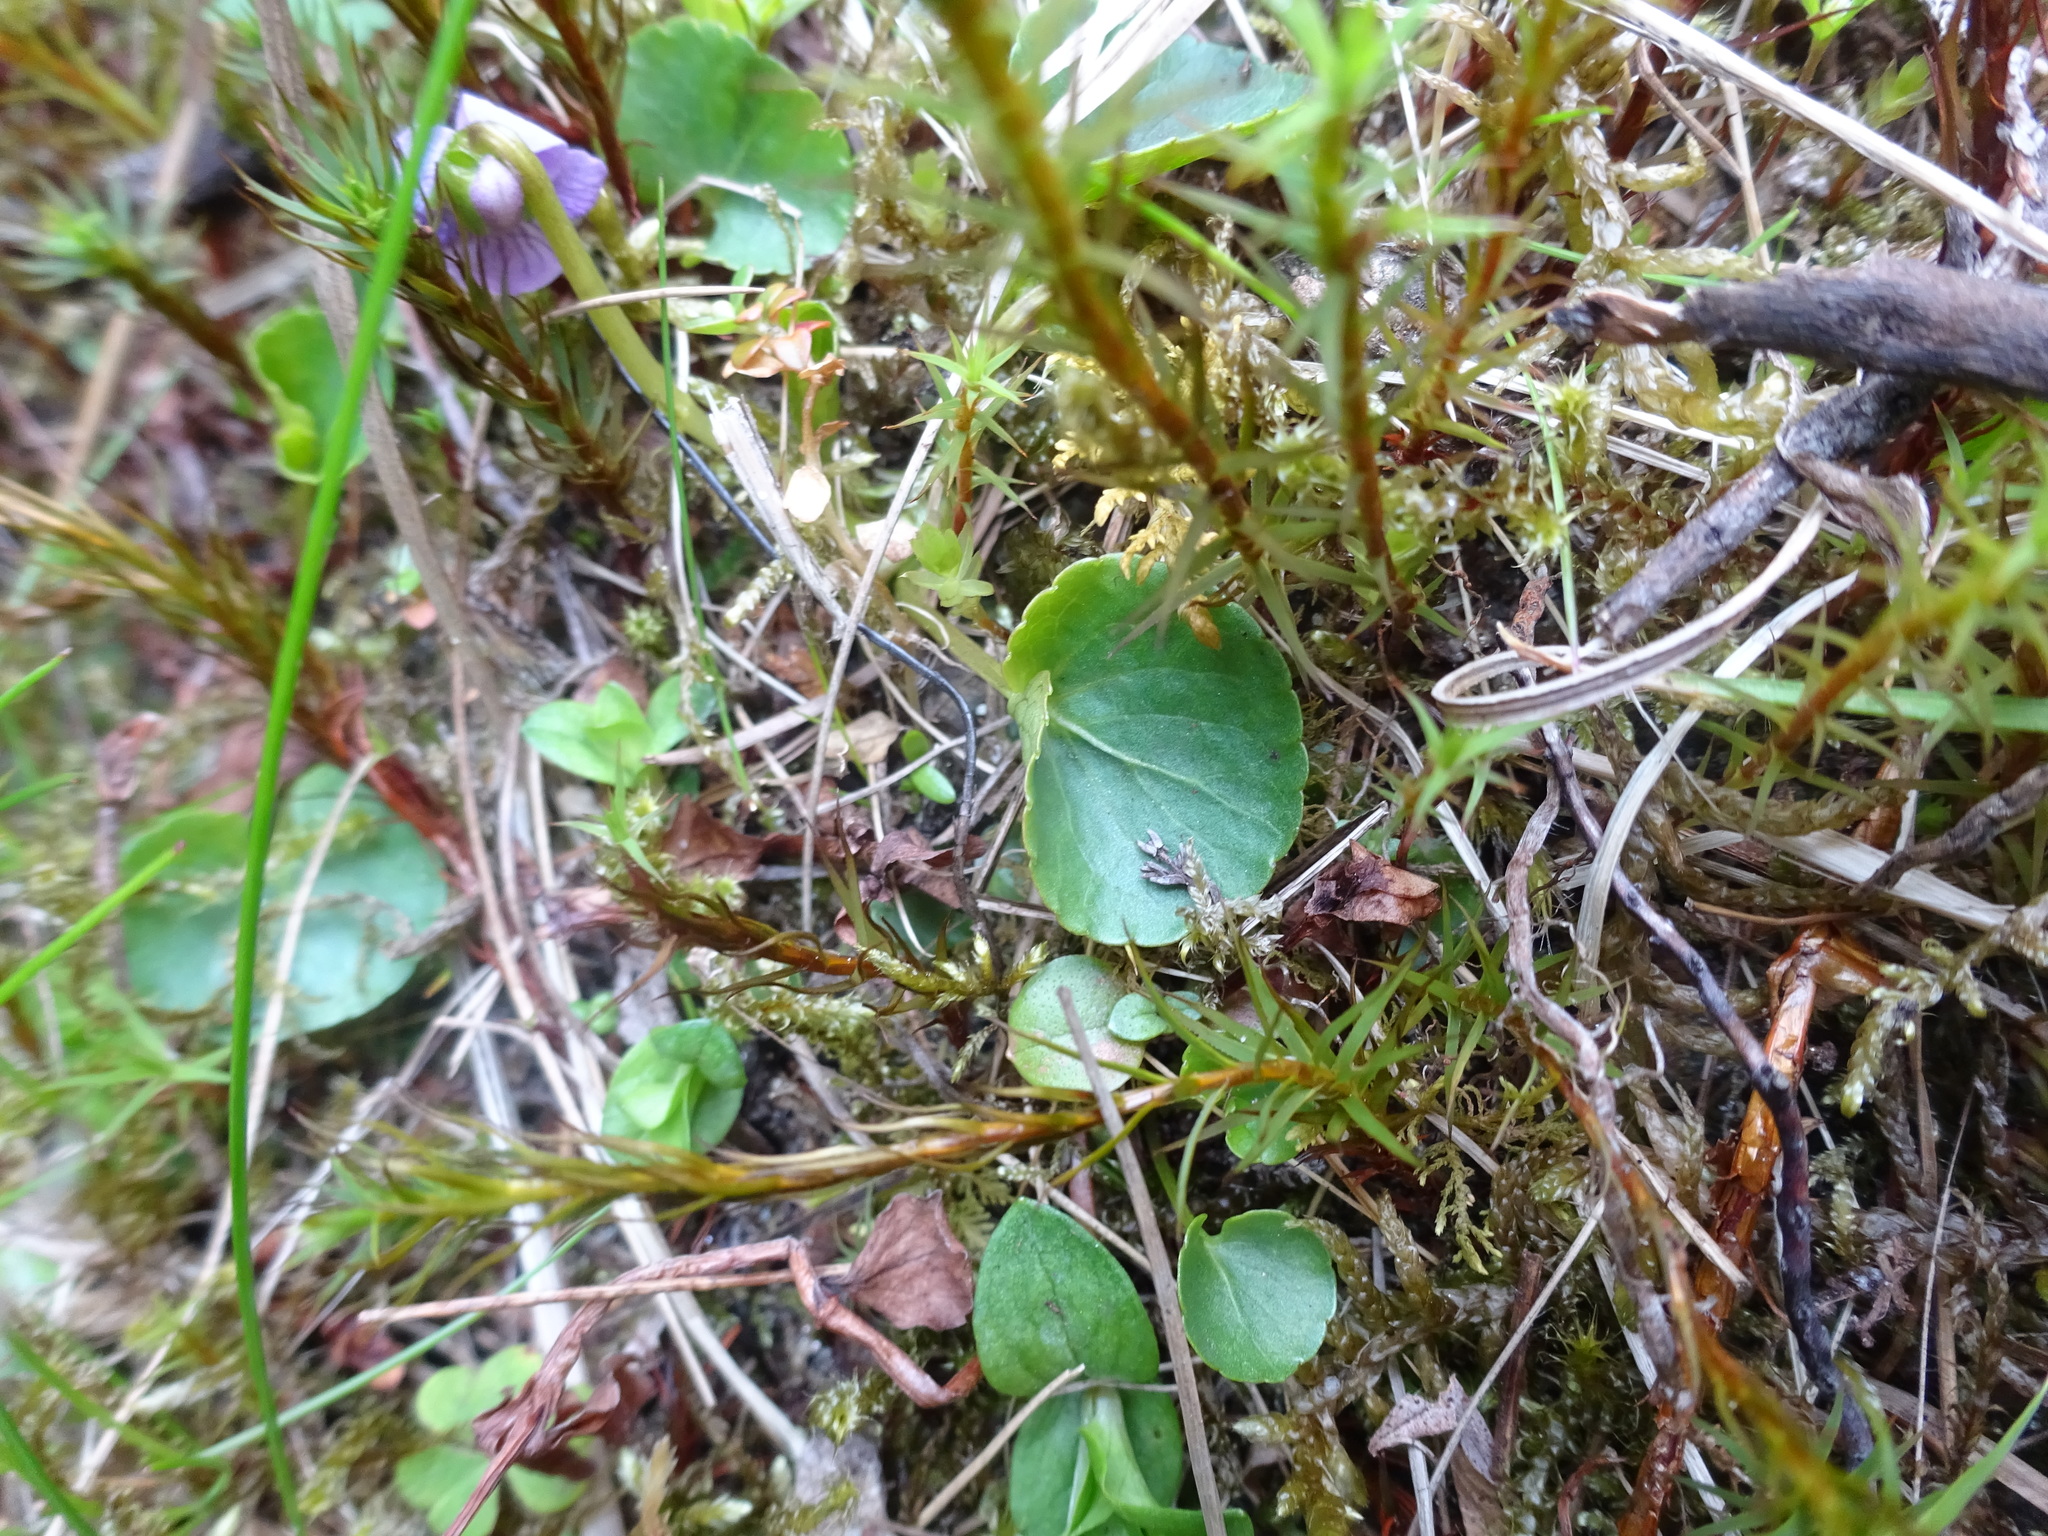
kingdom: Plantae
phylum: Tracheophyta
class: Magnoliopsida
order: Malpighiales
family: Violaceae
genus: Viola
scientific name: Viola palustris
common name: Marsh violet
